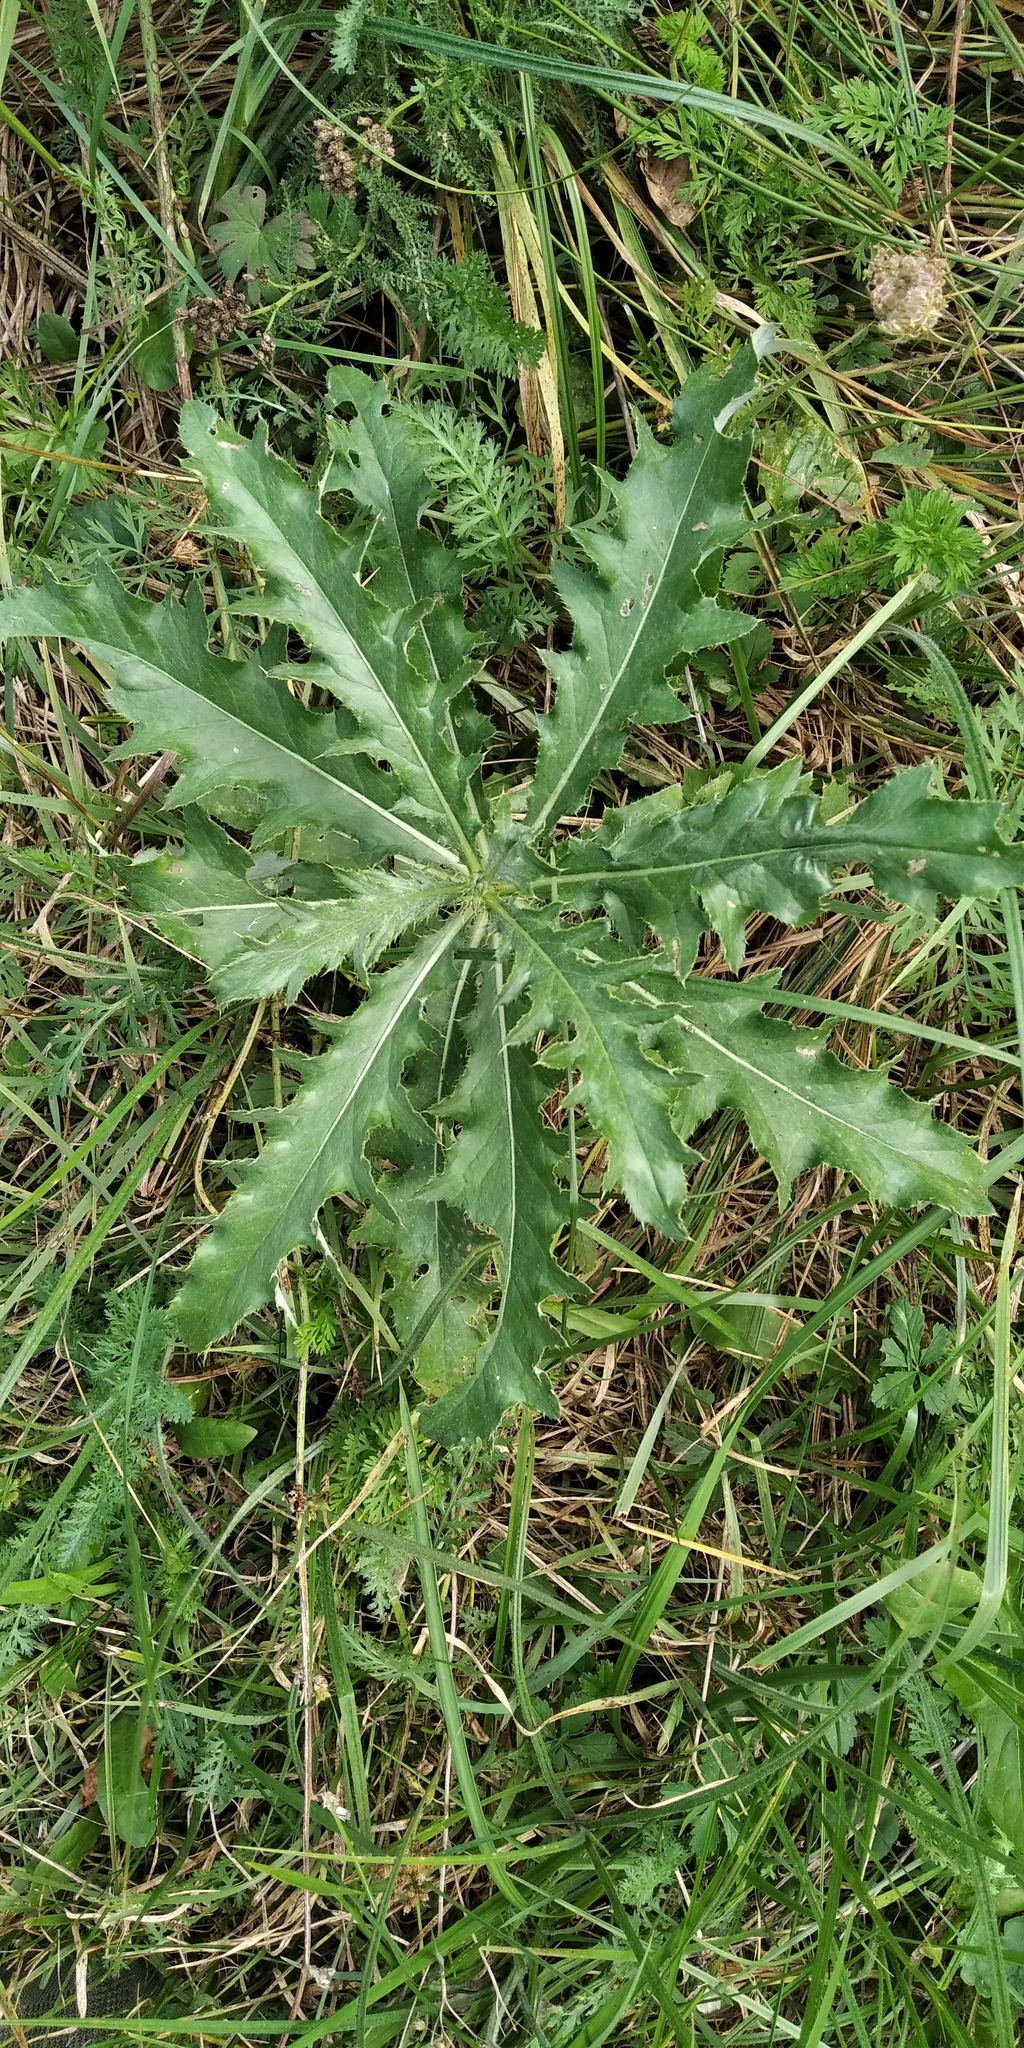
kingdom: Plantae
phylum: Tracheophyta
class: Magnoliopsida
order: Asterales
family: Asteraceae
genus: Cirsium
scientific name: Cirsium arvense
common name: Creeping thistle
